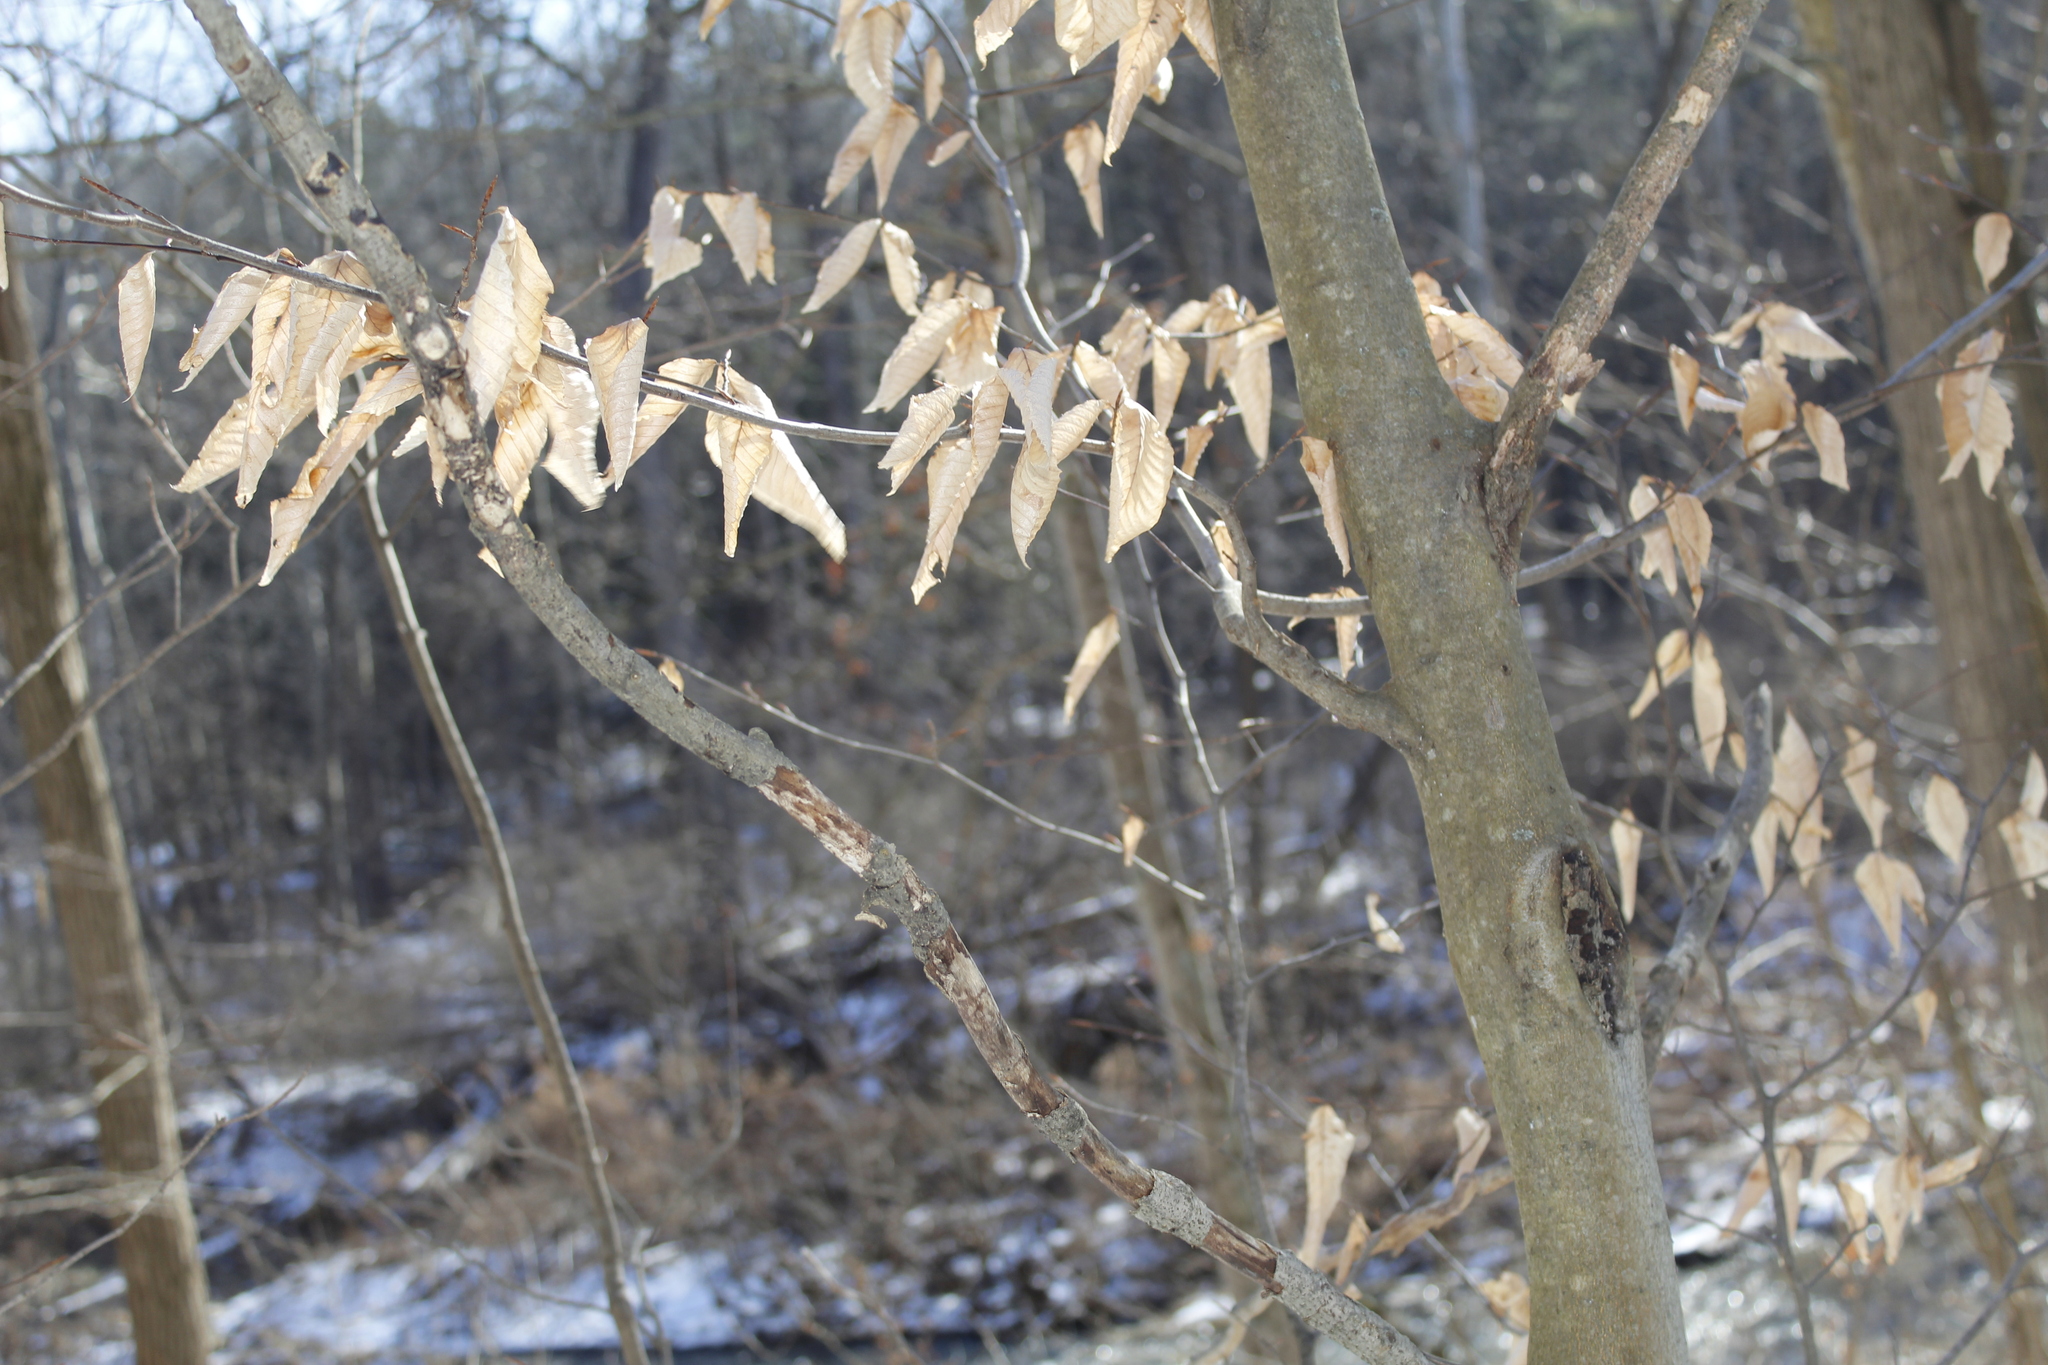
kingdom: Plantae
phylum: Tracheophyta
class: Magnoliopsida
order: Fagales
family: Fagaceae
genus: Fagus
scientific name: Fagus grandifolia
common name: American beech
